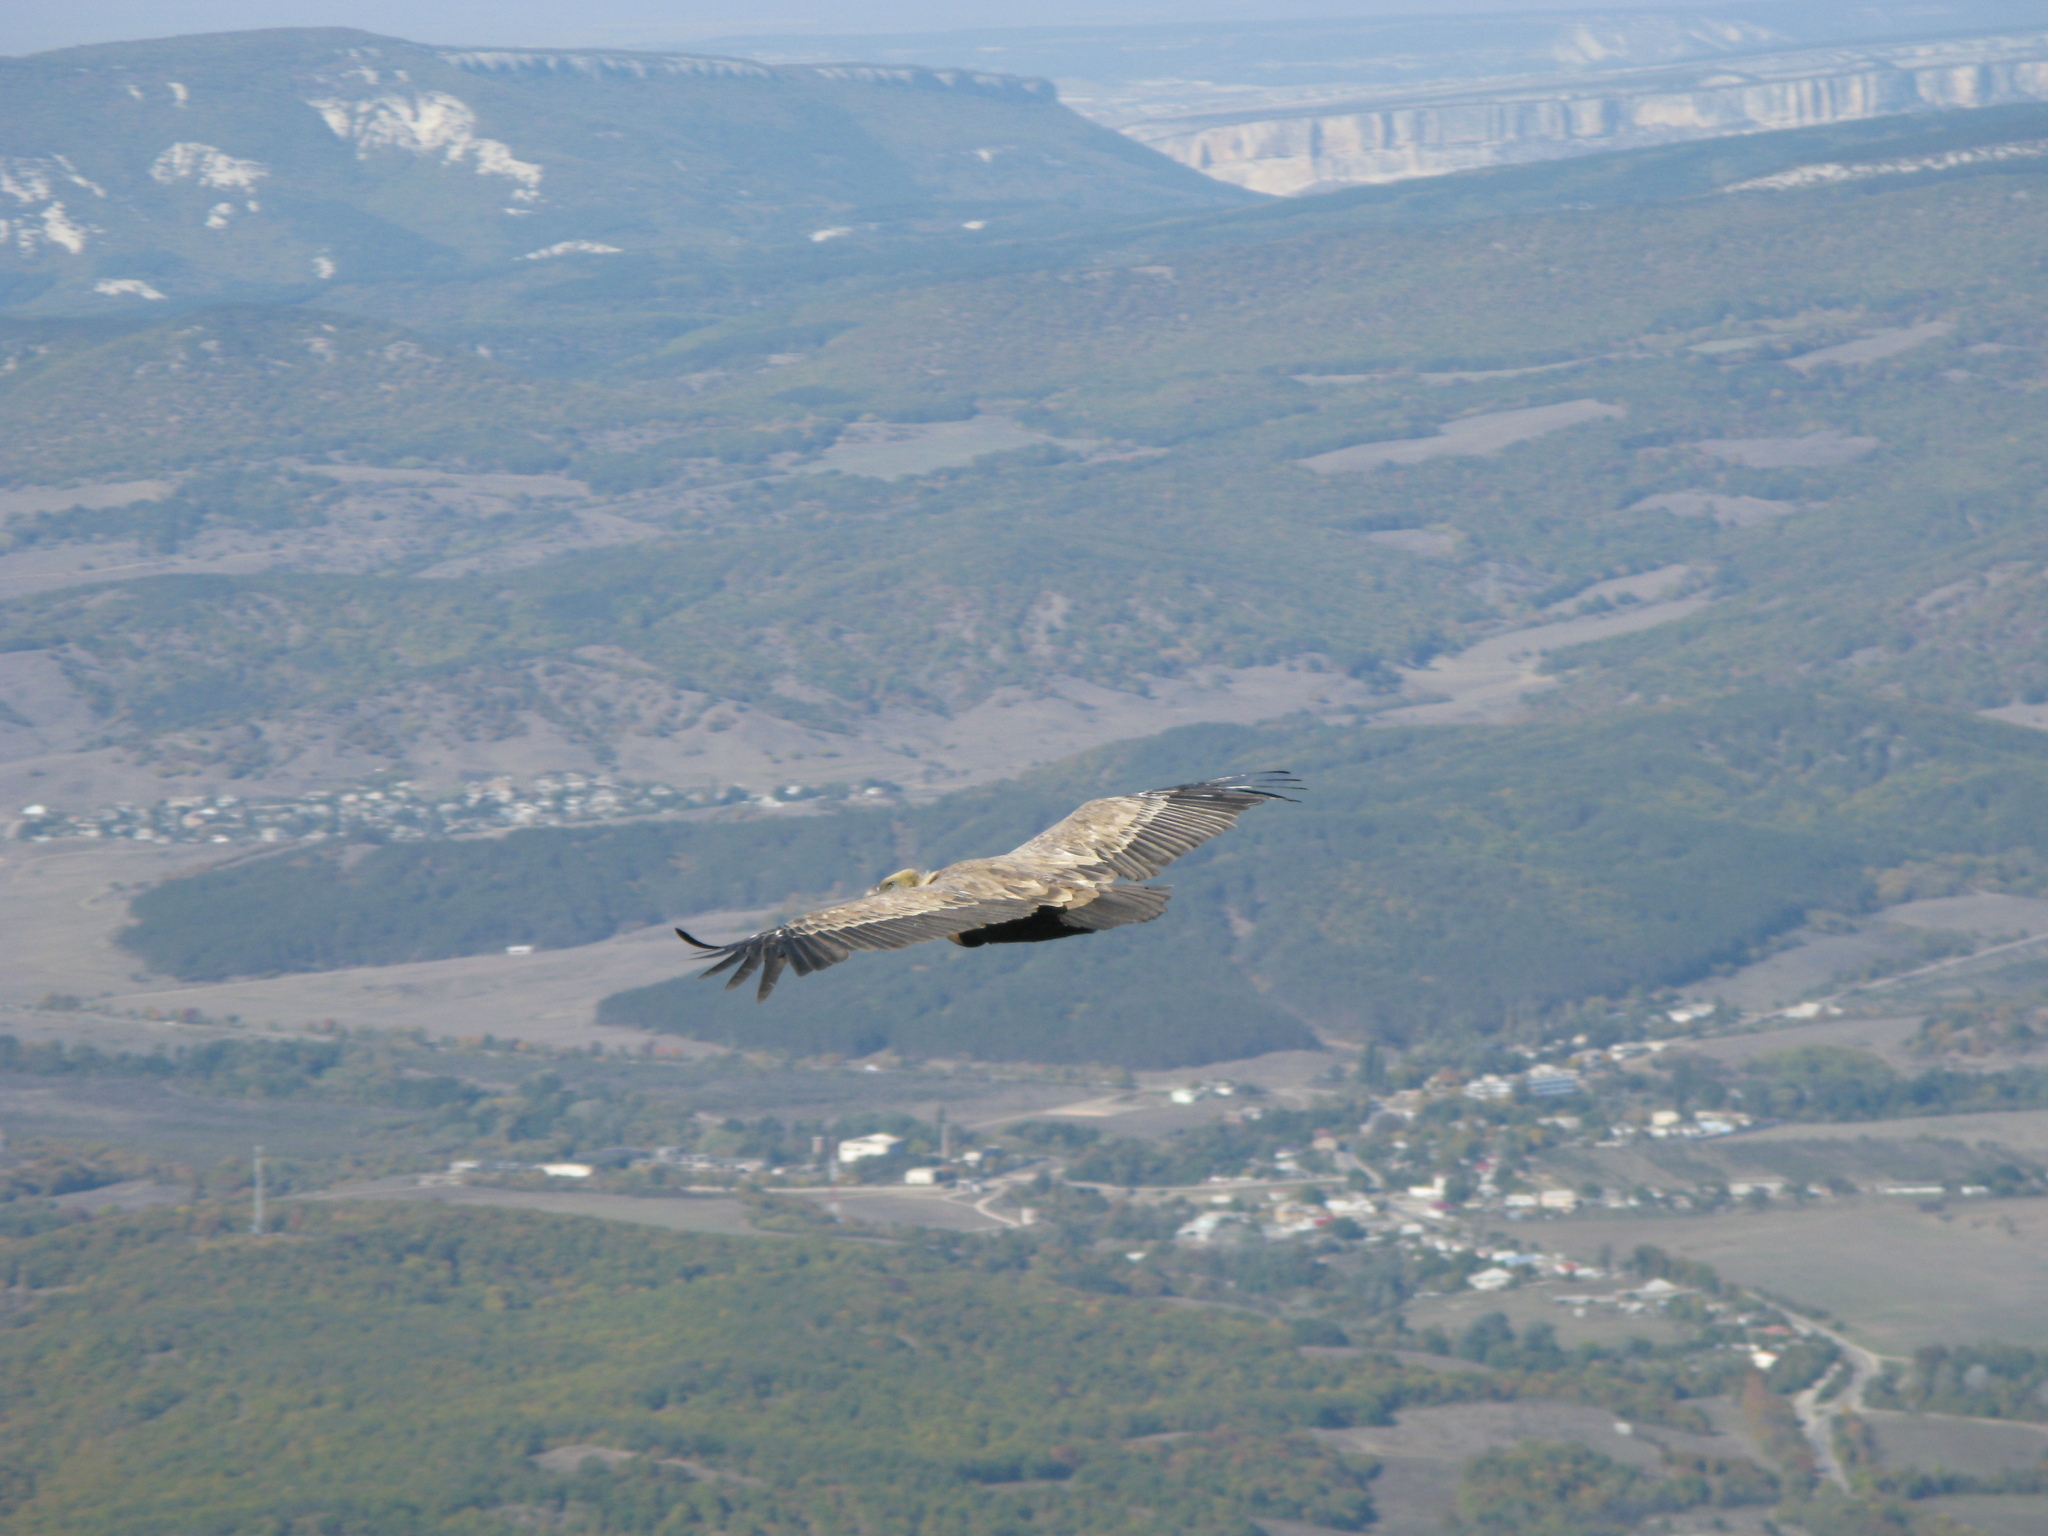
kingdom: Animalia
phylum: Chordata
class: Aves
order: Accipitriformes
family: Accipitridae
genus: Gyps
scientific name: Gyps fulvus
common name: Griffon vulture
